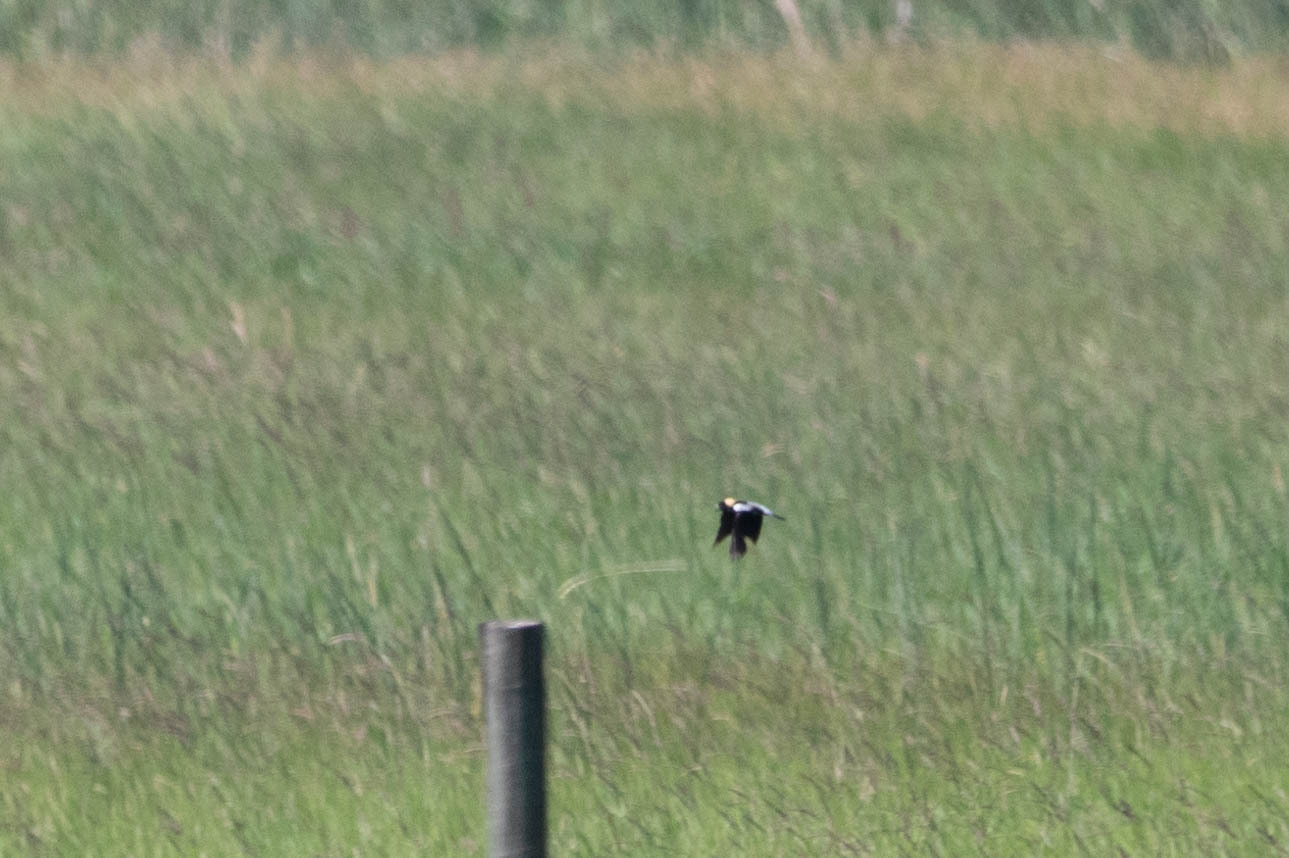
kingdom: Animalia
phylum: Chordata
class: Aves
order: Passeriformes
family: Icteridae
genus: Dolichonyx
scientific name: Dolichonyx oryzivorus
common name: Bobolink
